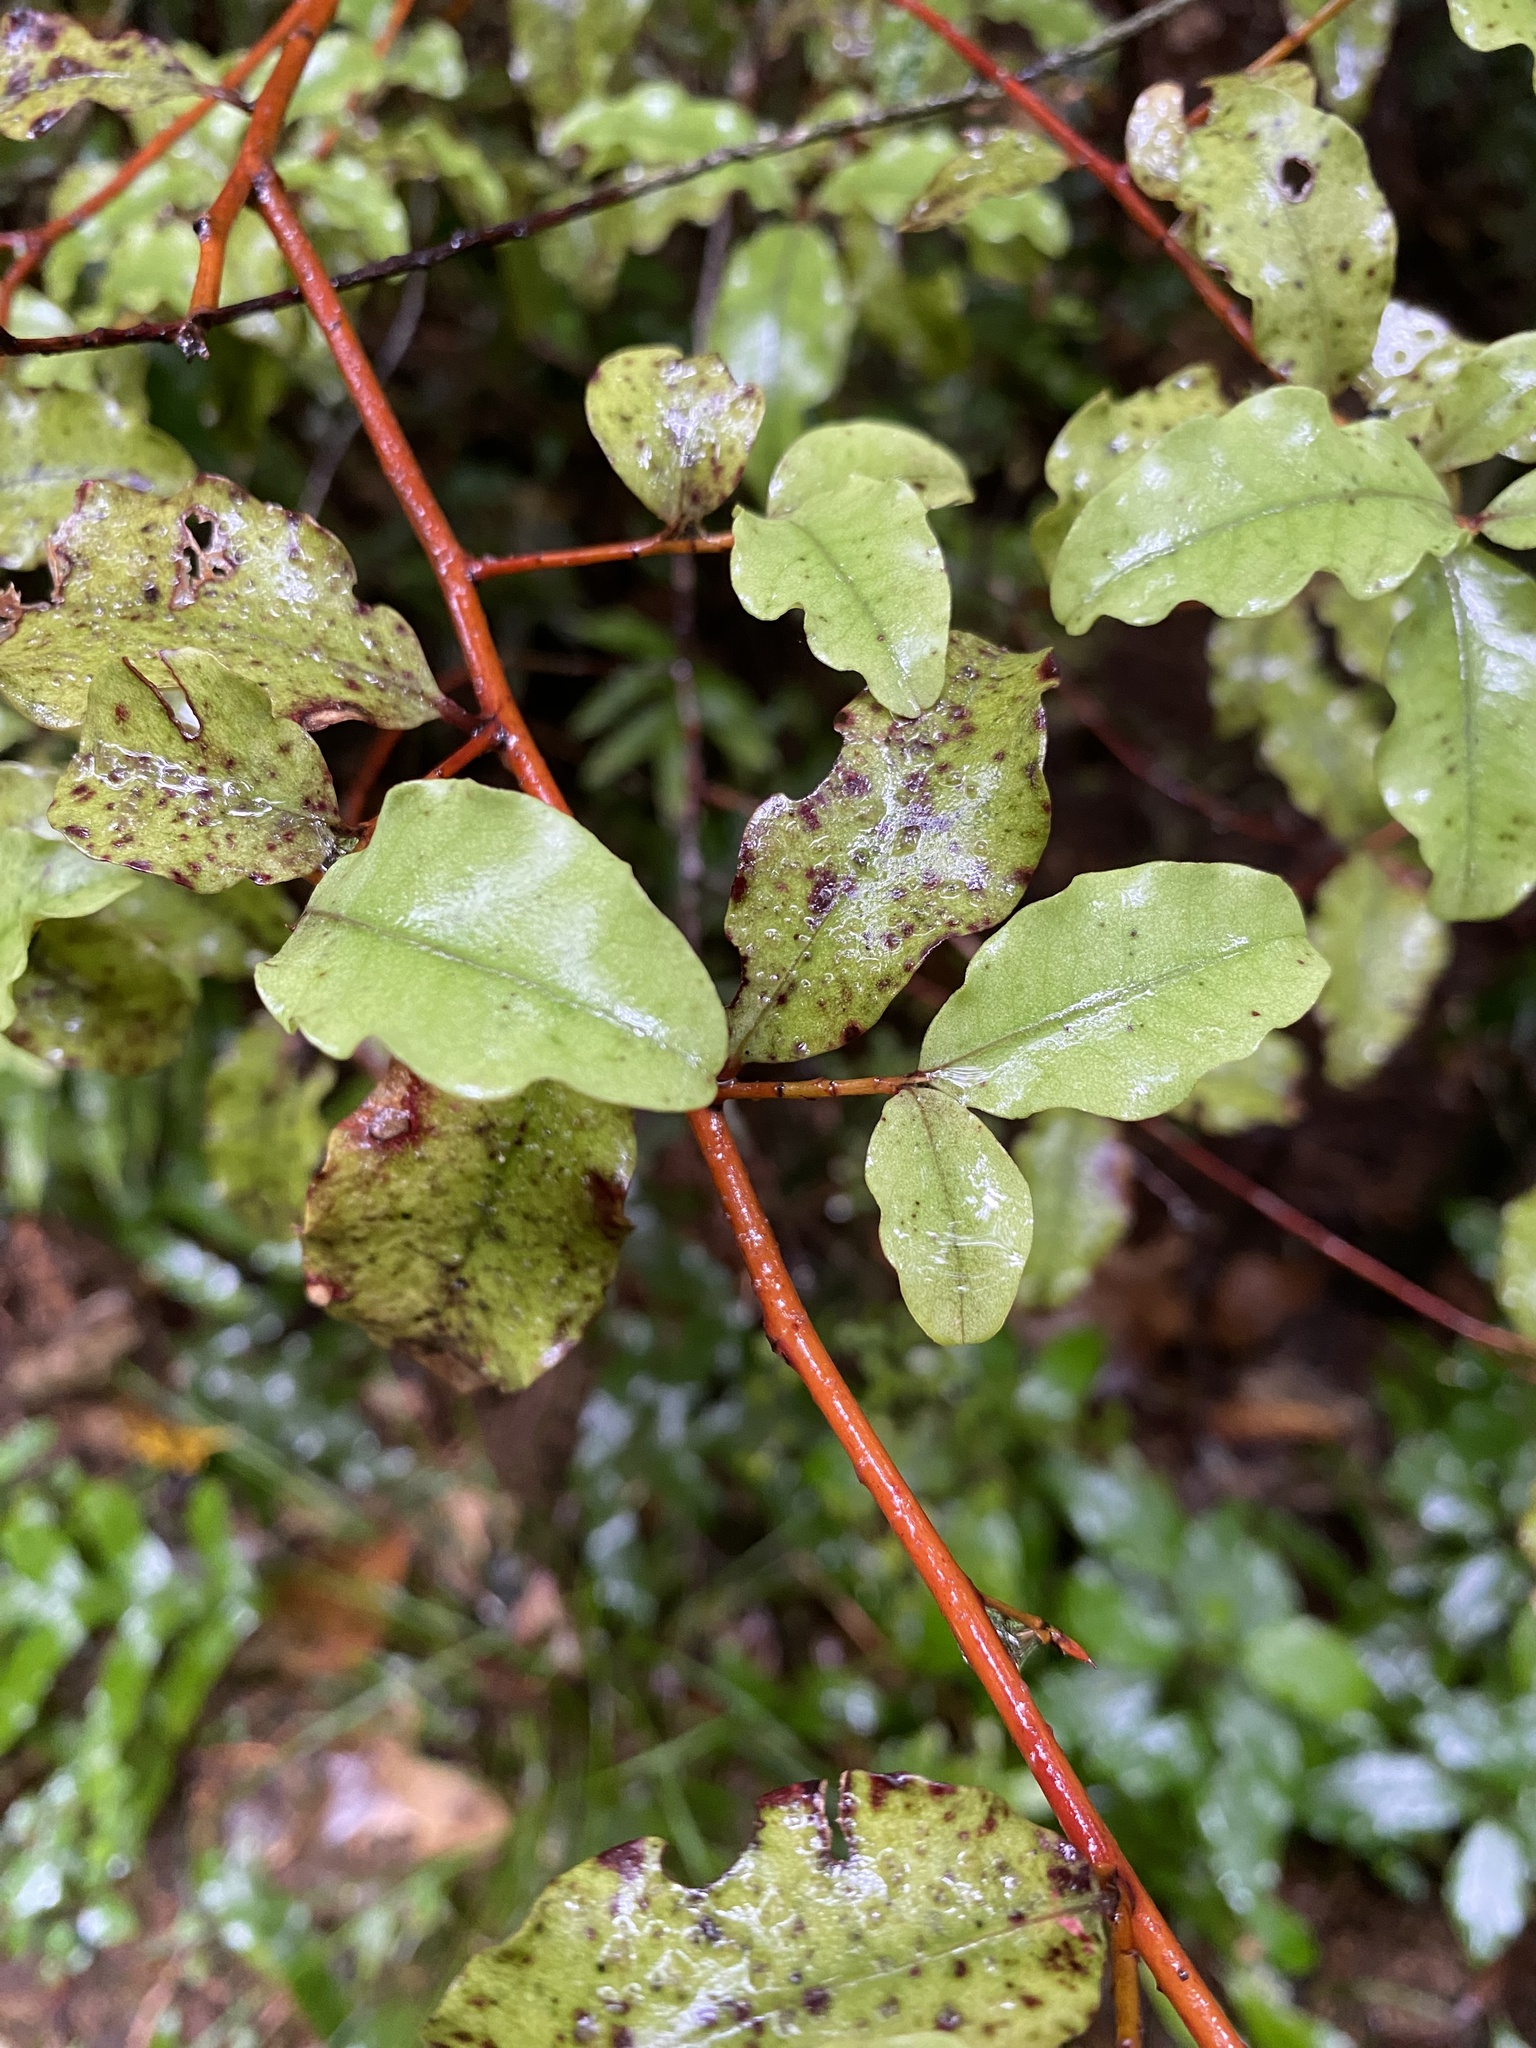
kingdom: Plantae
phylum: Tracheophyta
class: Magnoliopsida
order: Ericales
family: Primulaceae
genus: Myrsine
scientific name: Myrsine australis
